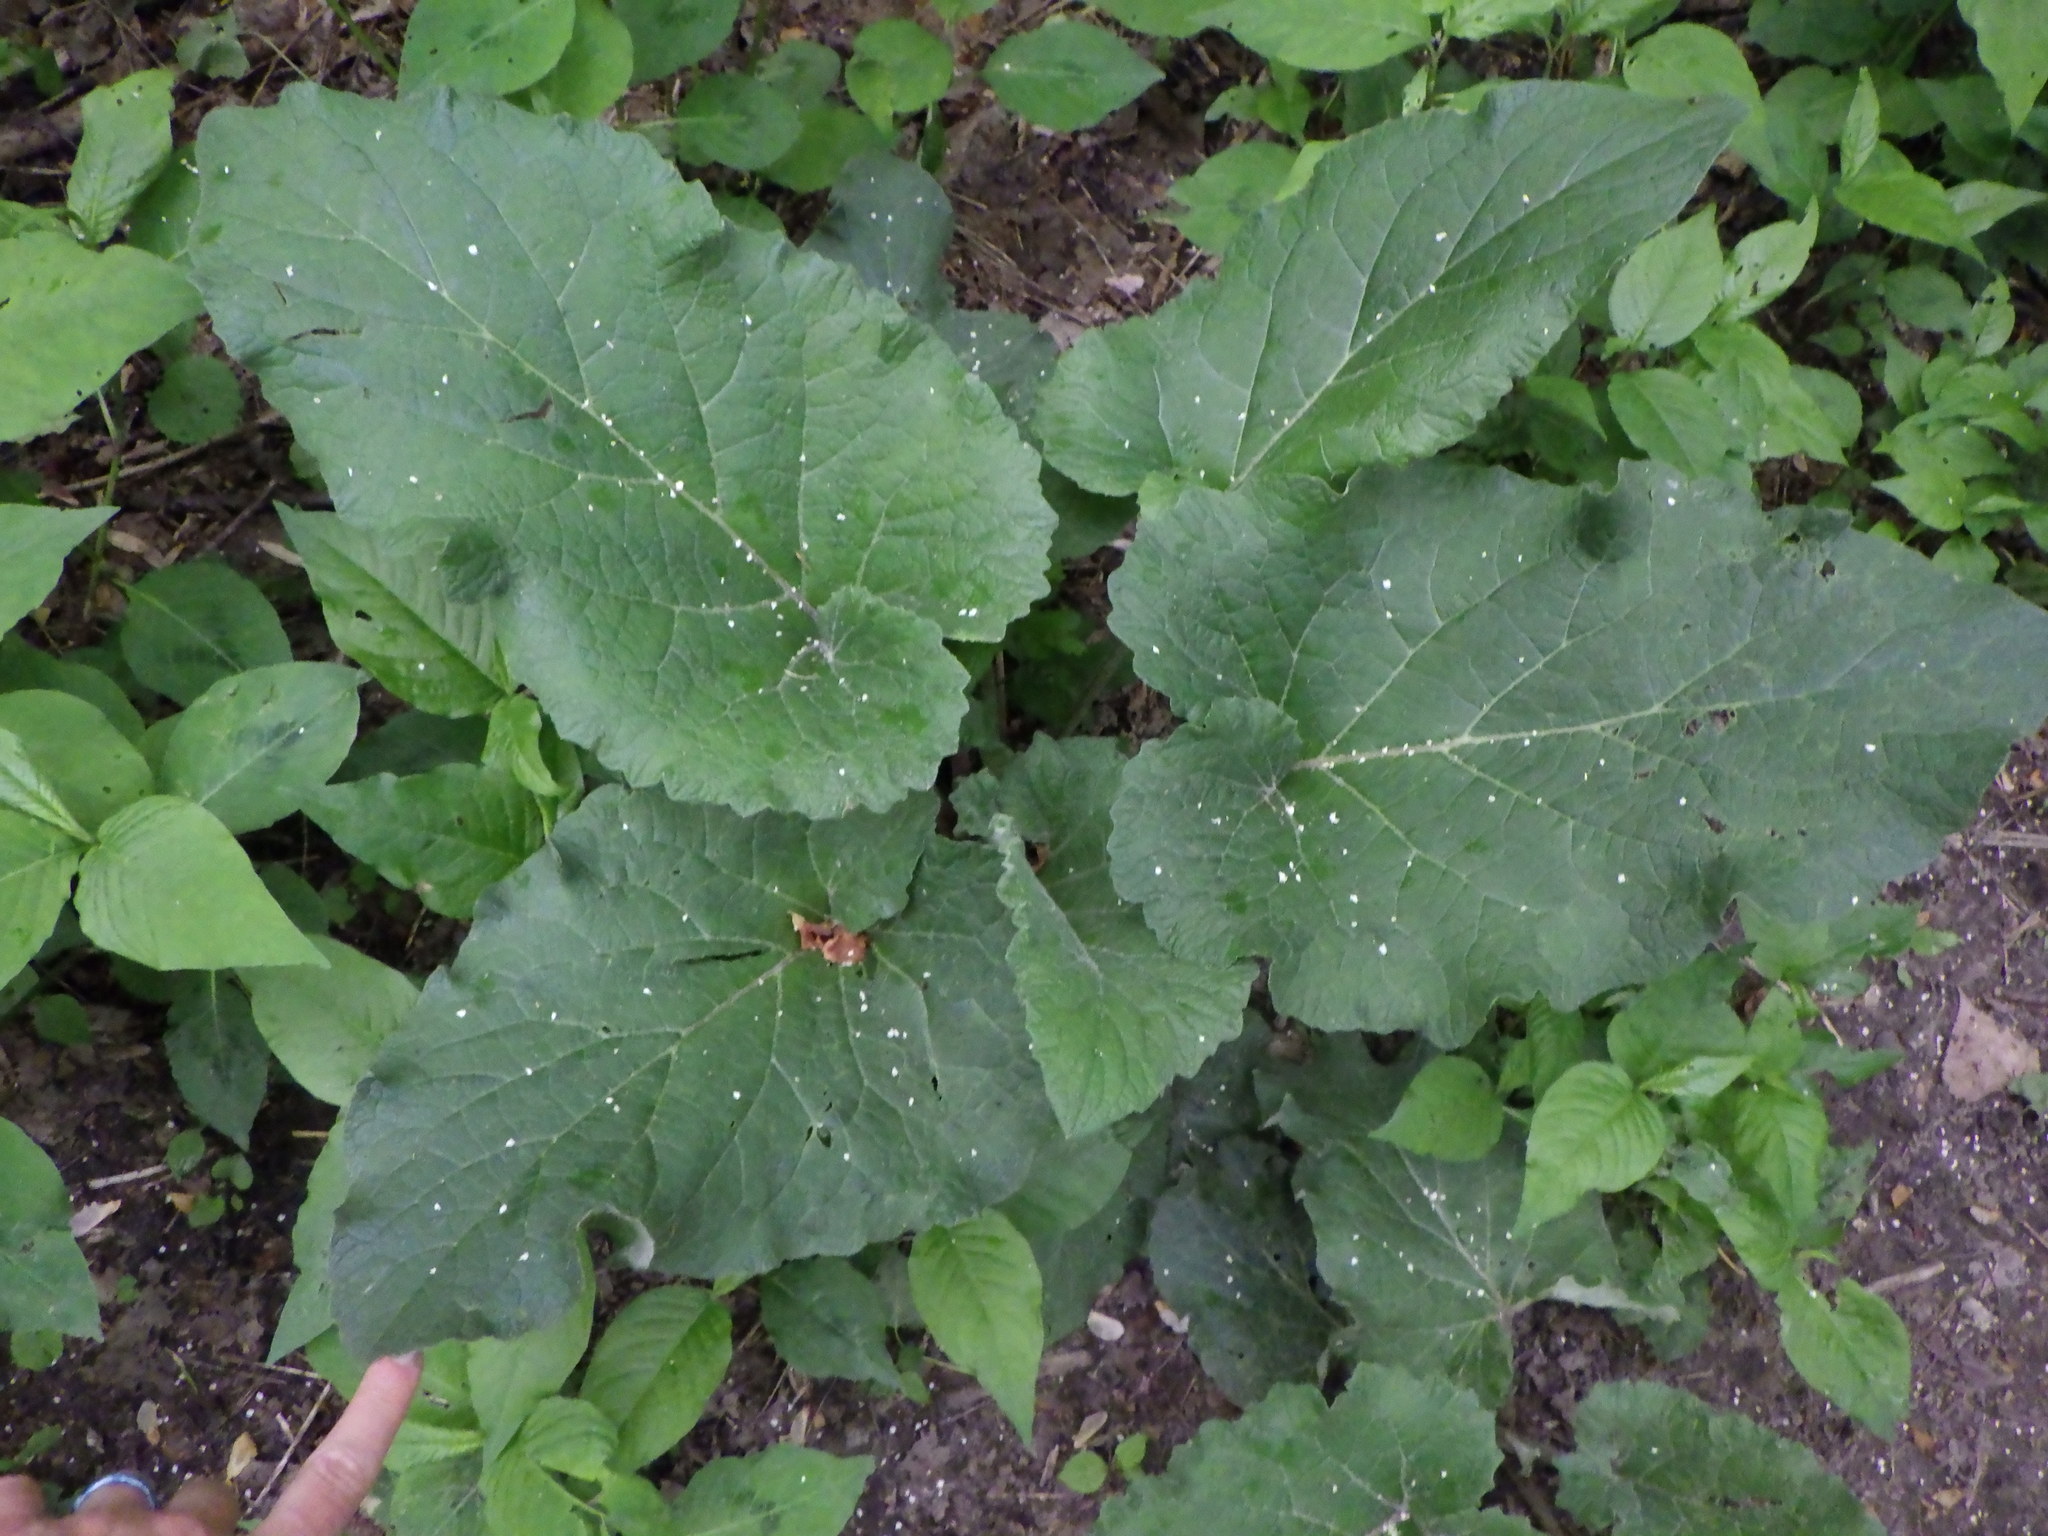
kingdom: Plantae
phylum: Tracheophyta
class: Magnoliopsida
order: Asterales
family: Asteraceae
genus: Arctium
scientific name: Arctium
